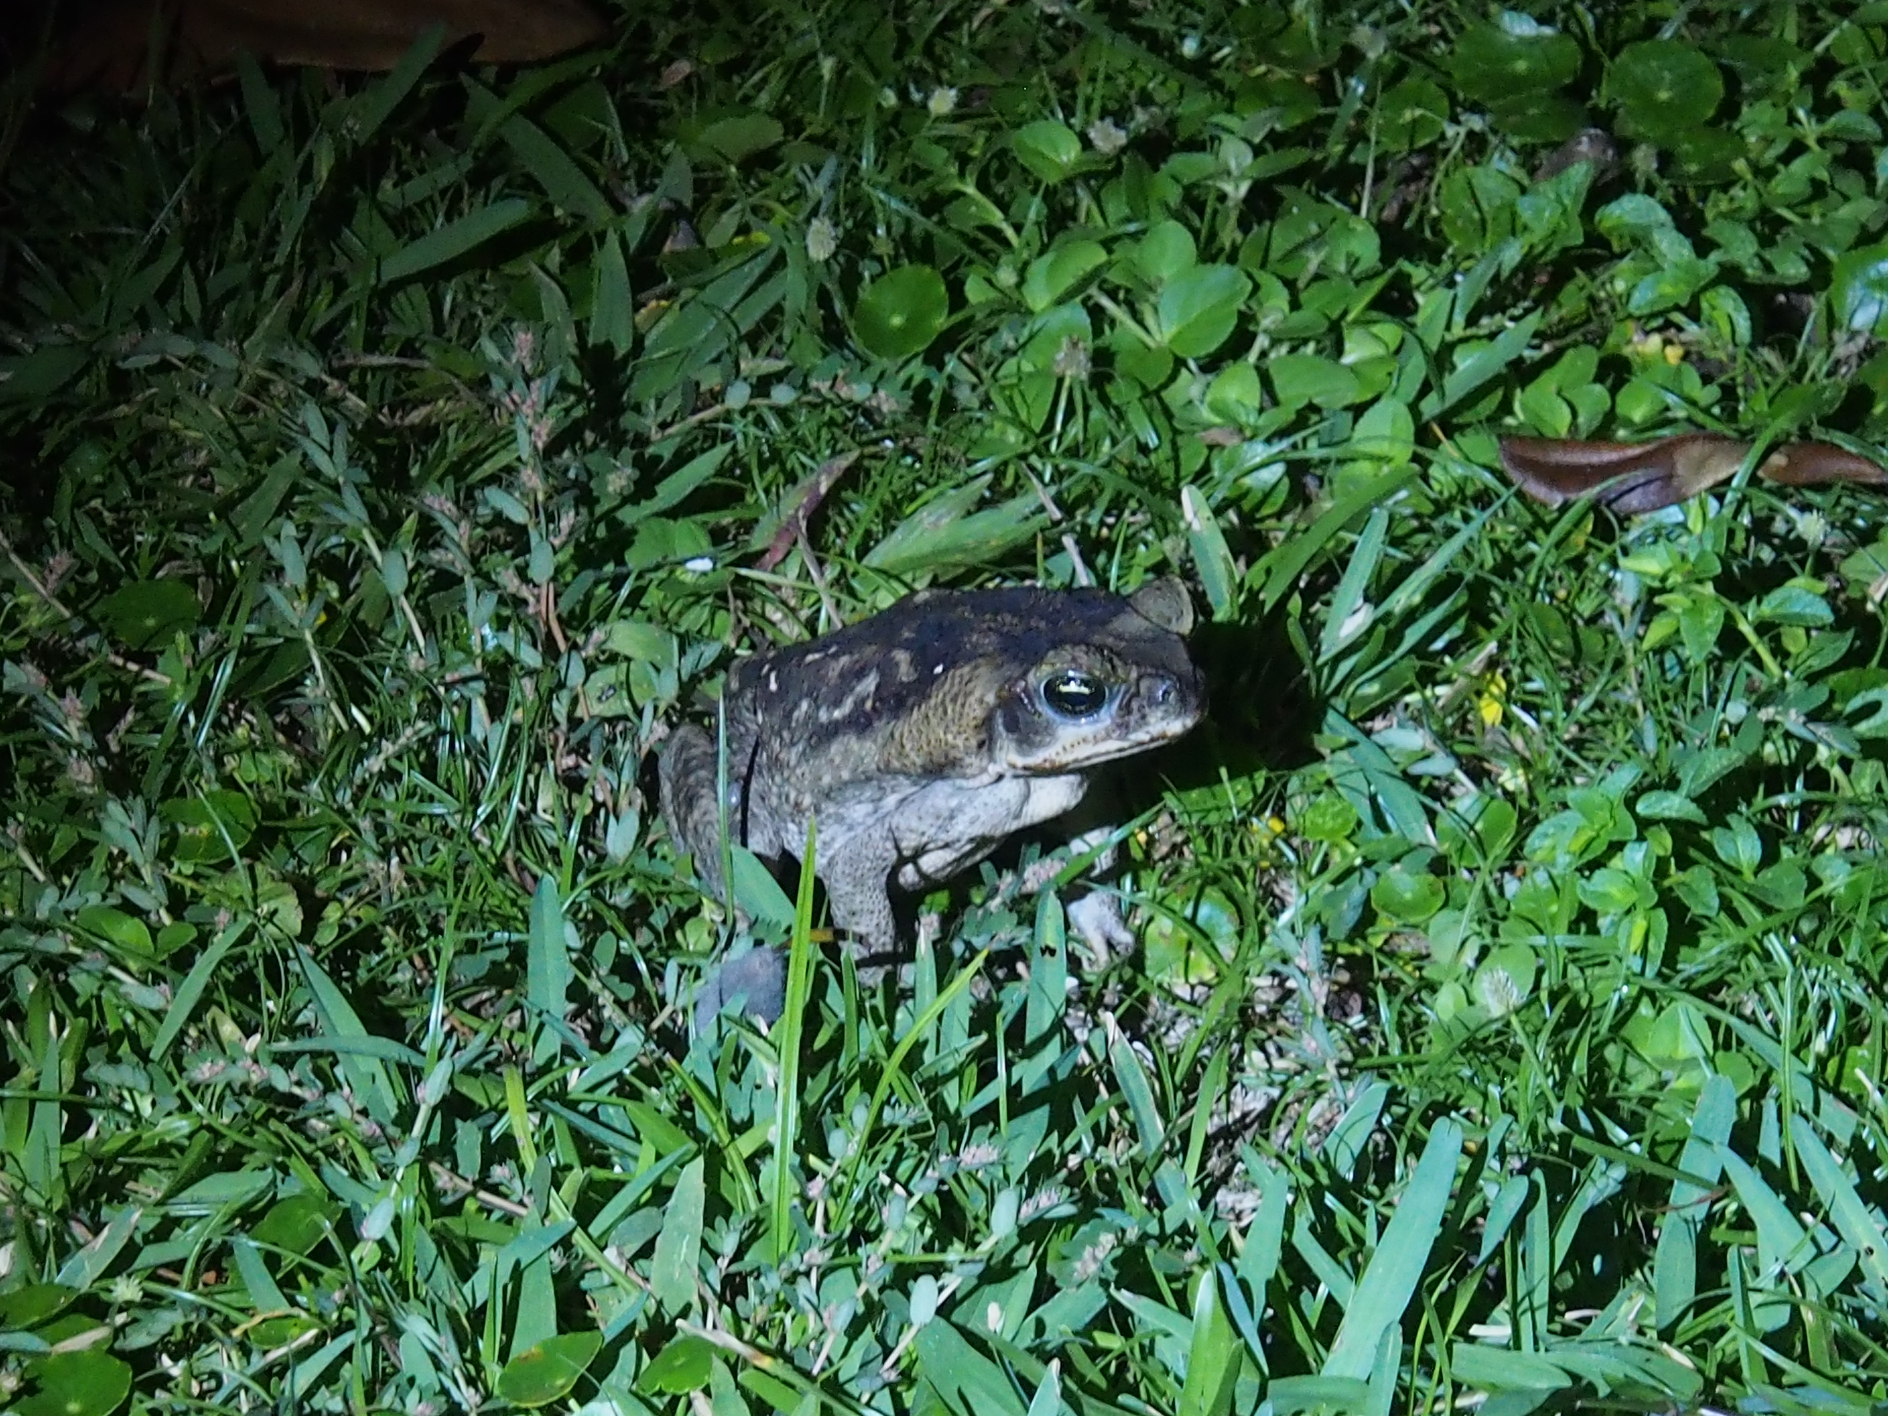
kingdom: Animalia
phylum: Chordata
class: Amphibia
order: Anura
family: Bufonidae
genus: Rhinella
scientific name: Rhinella horribilis
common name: Mesoamerican cane toad
